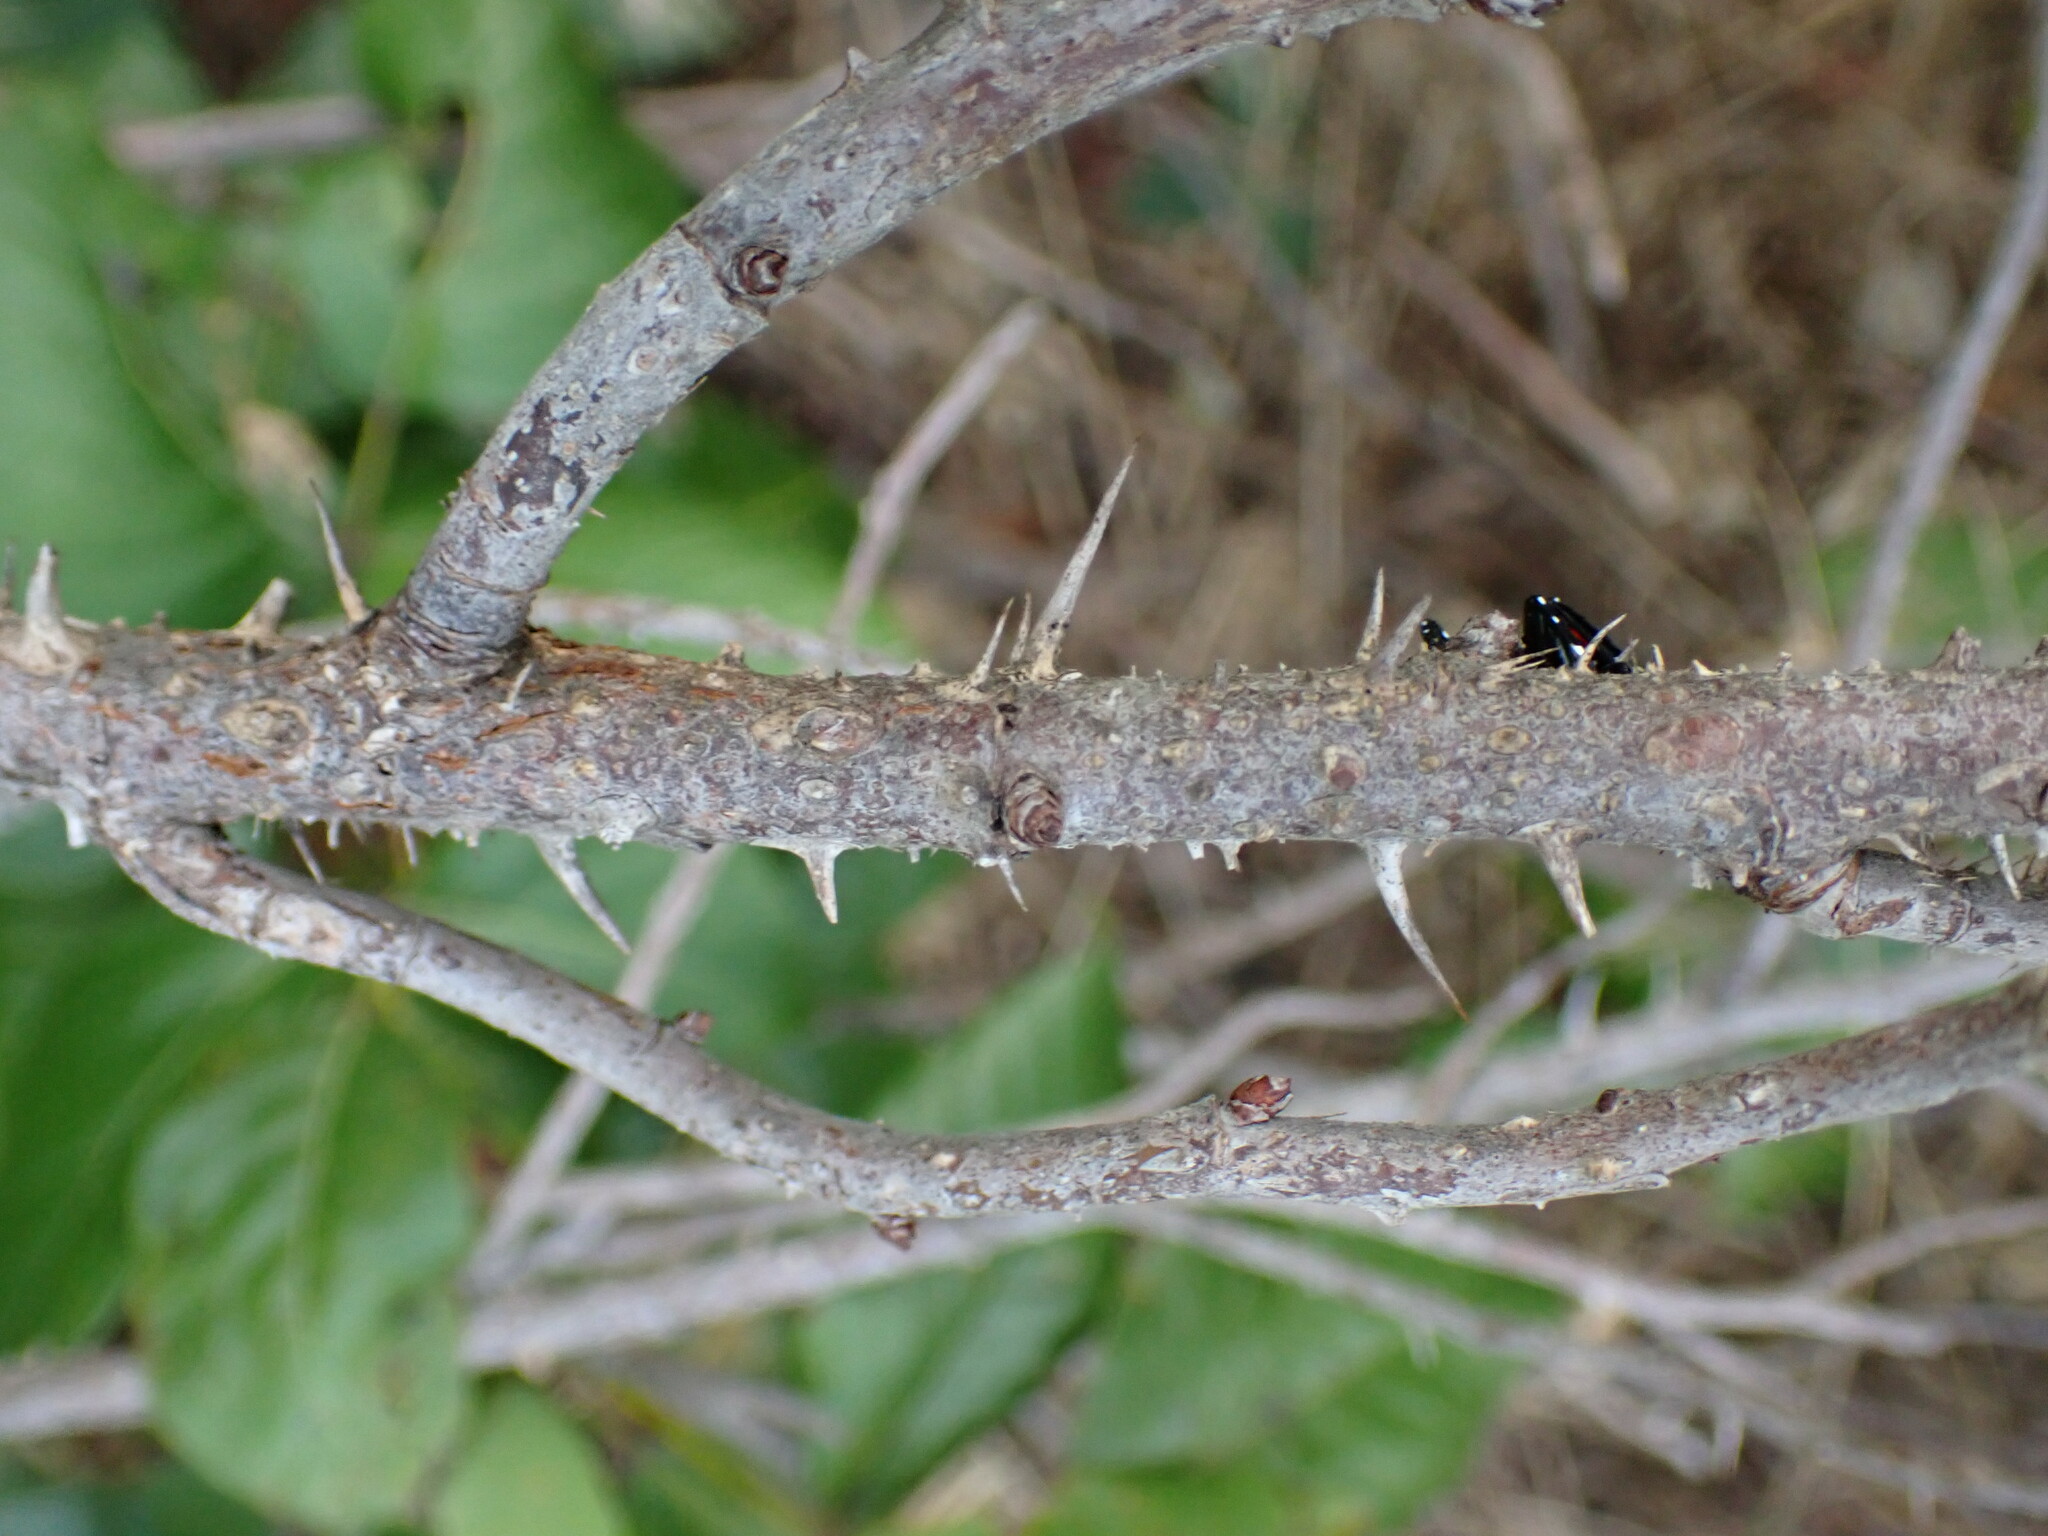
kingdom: Plantae
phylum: Tracheophyta
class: Magnoliopsida
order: Rosales
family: Rosaceae
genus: Rosa
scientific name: Rosa rugosa
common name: Japanese rose
